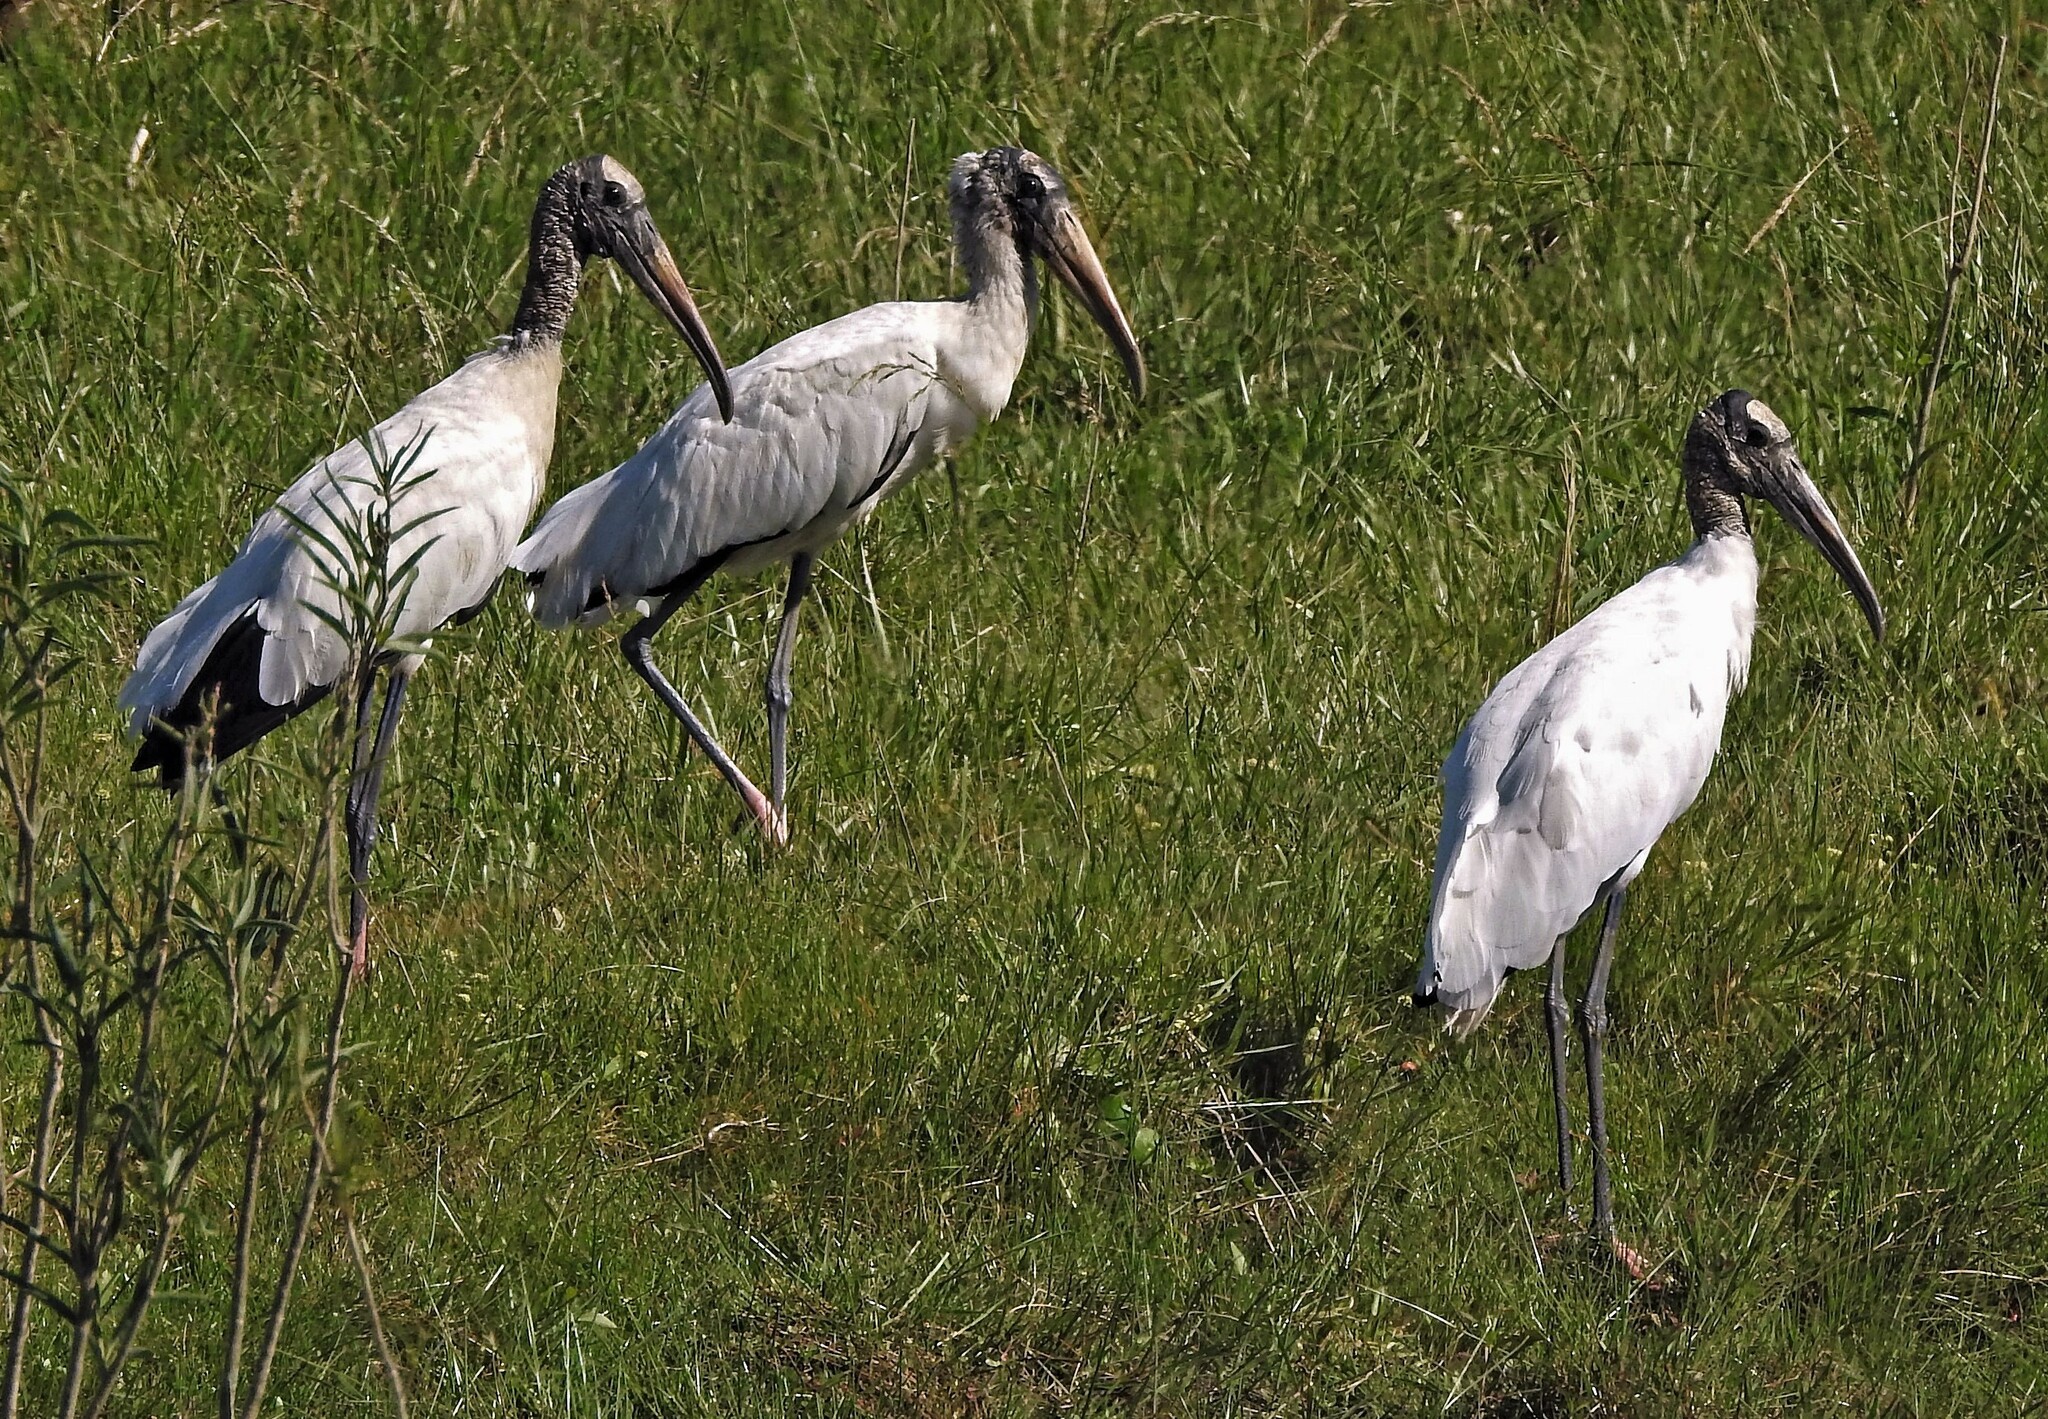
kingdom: Animalia
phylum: Chordata
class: Aves
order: Ciconiiformes
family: Ciconiidae
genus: Mycteria
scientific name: Mycteria americana
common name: Wood stork
